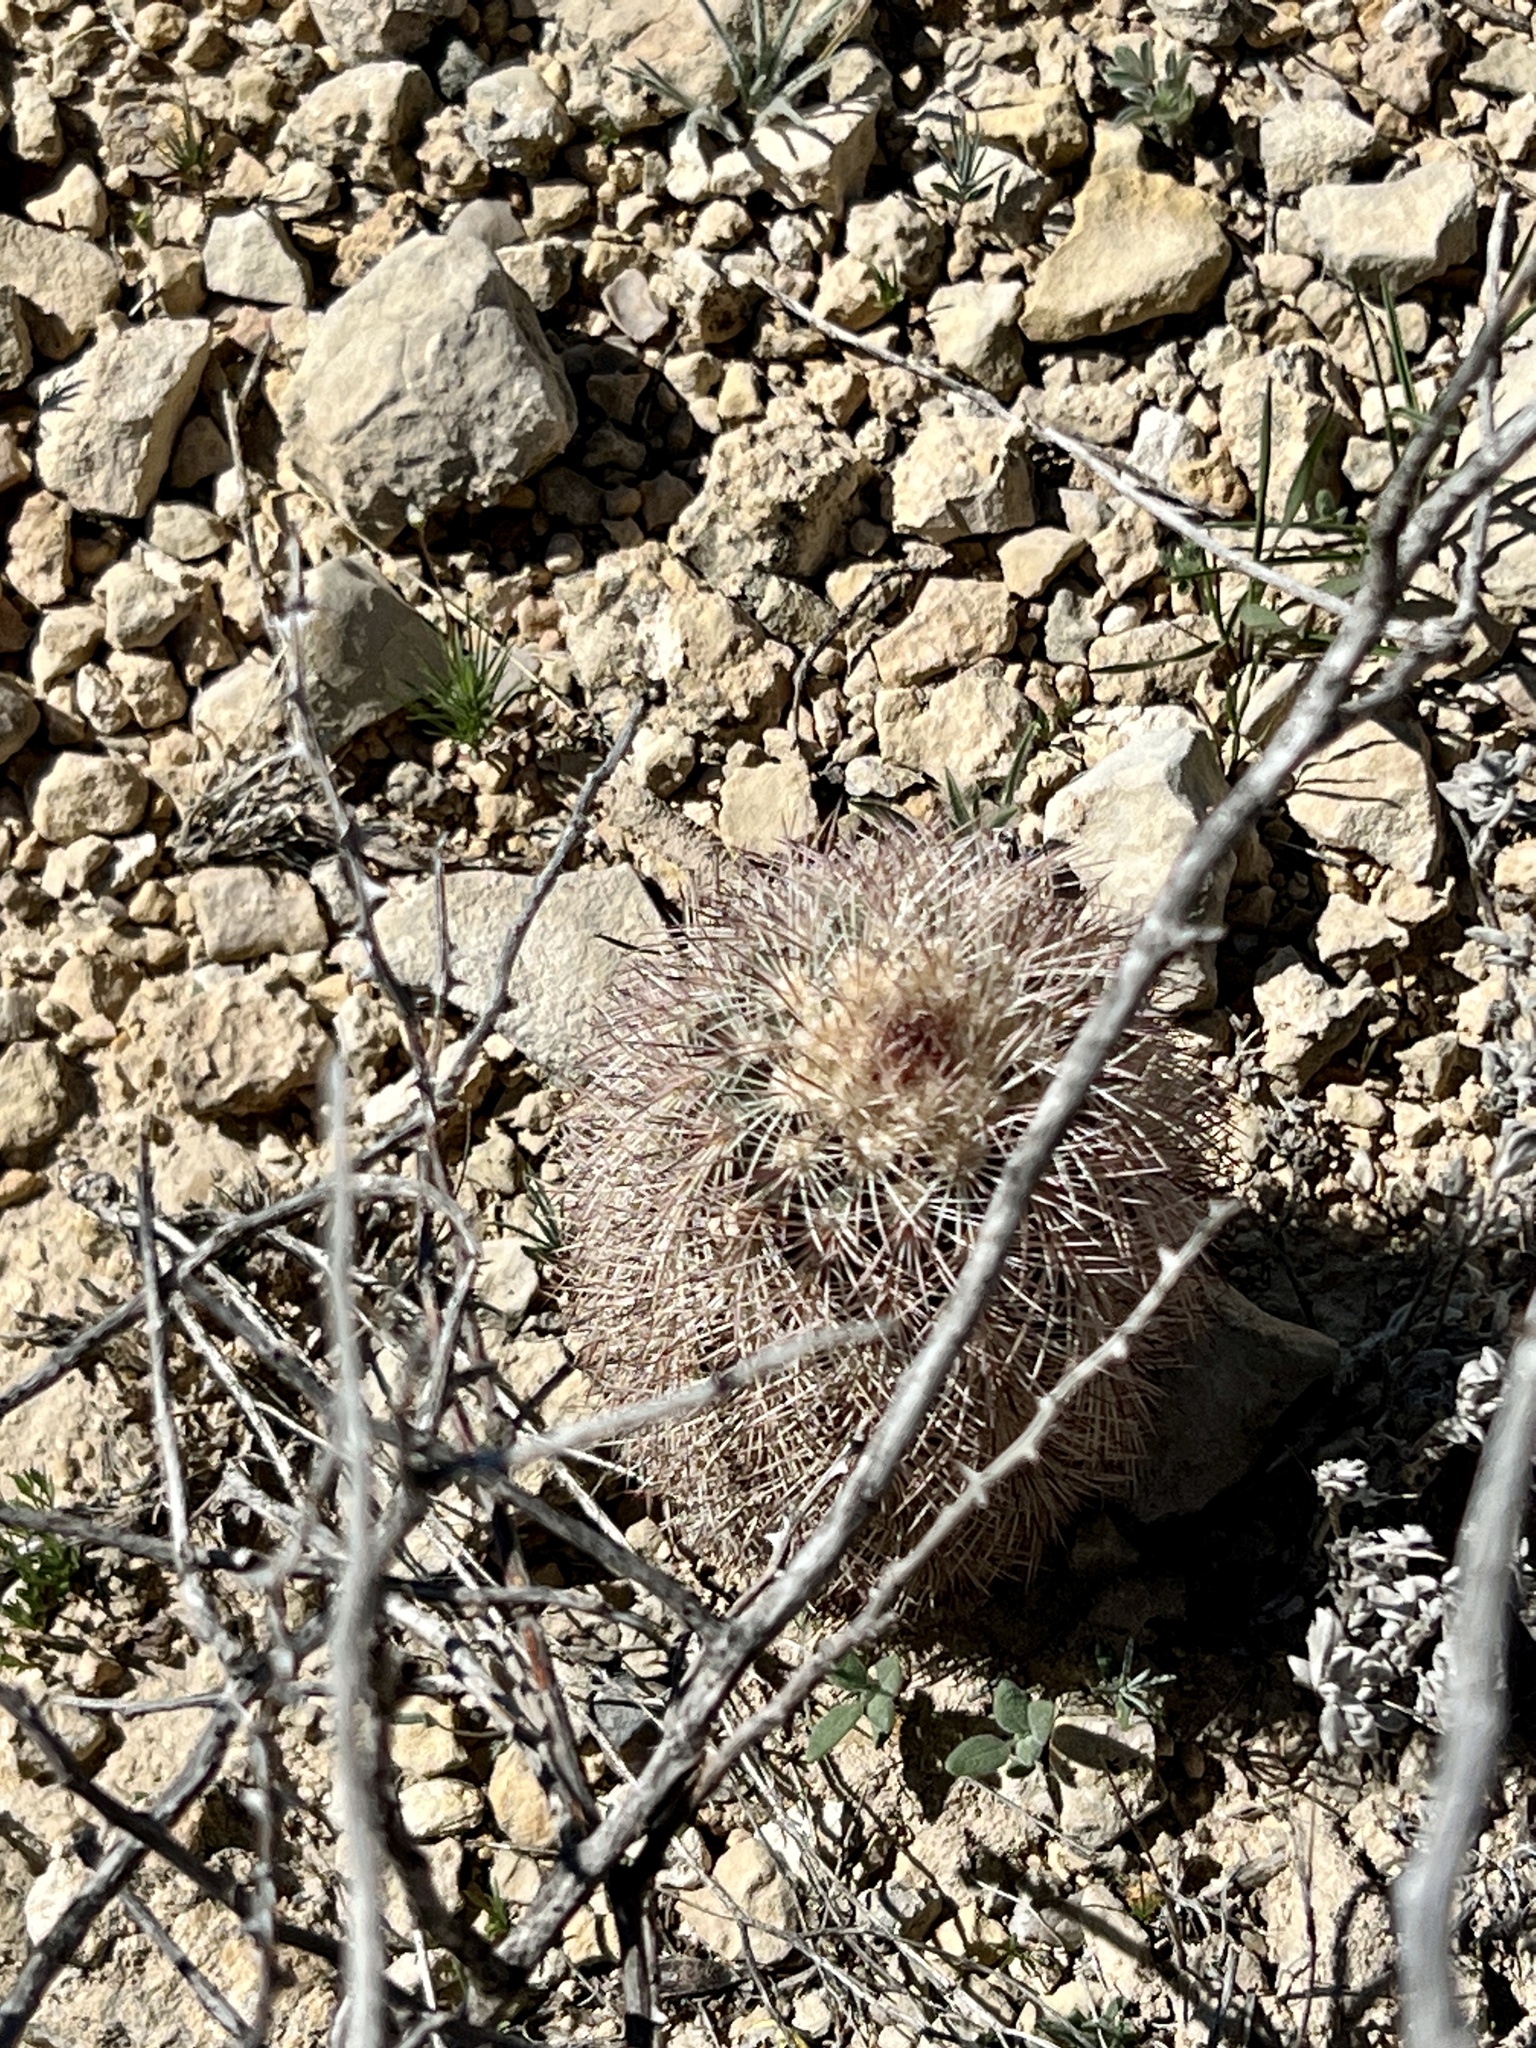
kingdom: Plantae
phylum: Tracheophyta
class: Magnoliopsida
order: Caryophyllales
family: Cactaceae
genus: Echinocereus
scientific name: Echinocereus dasyacanthus
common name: Spiny hedgehog cactus
